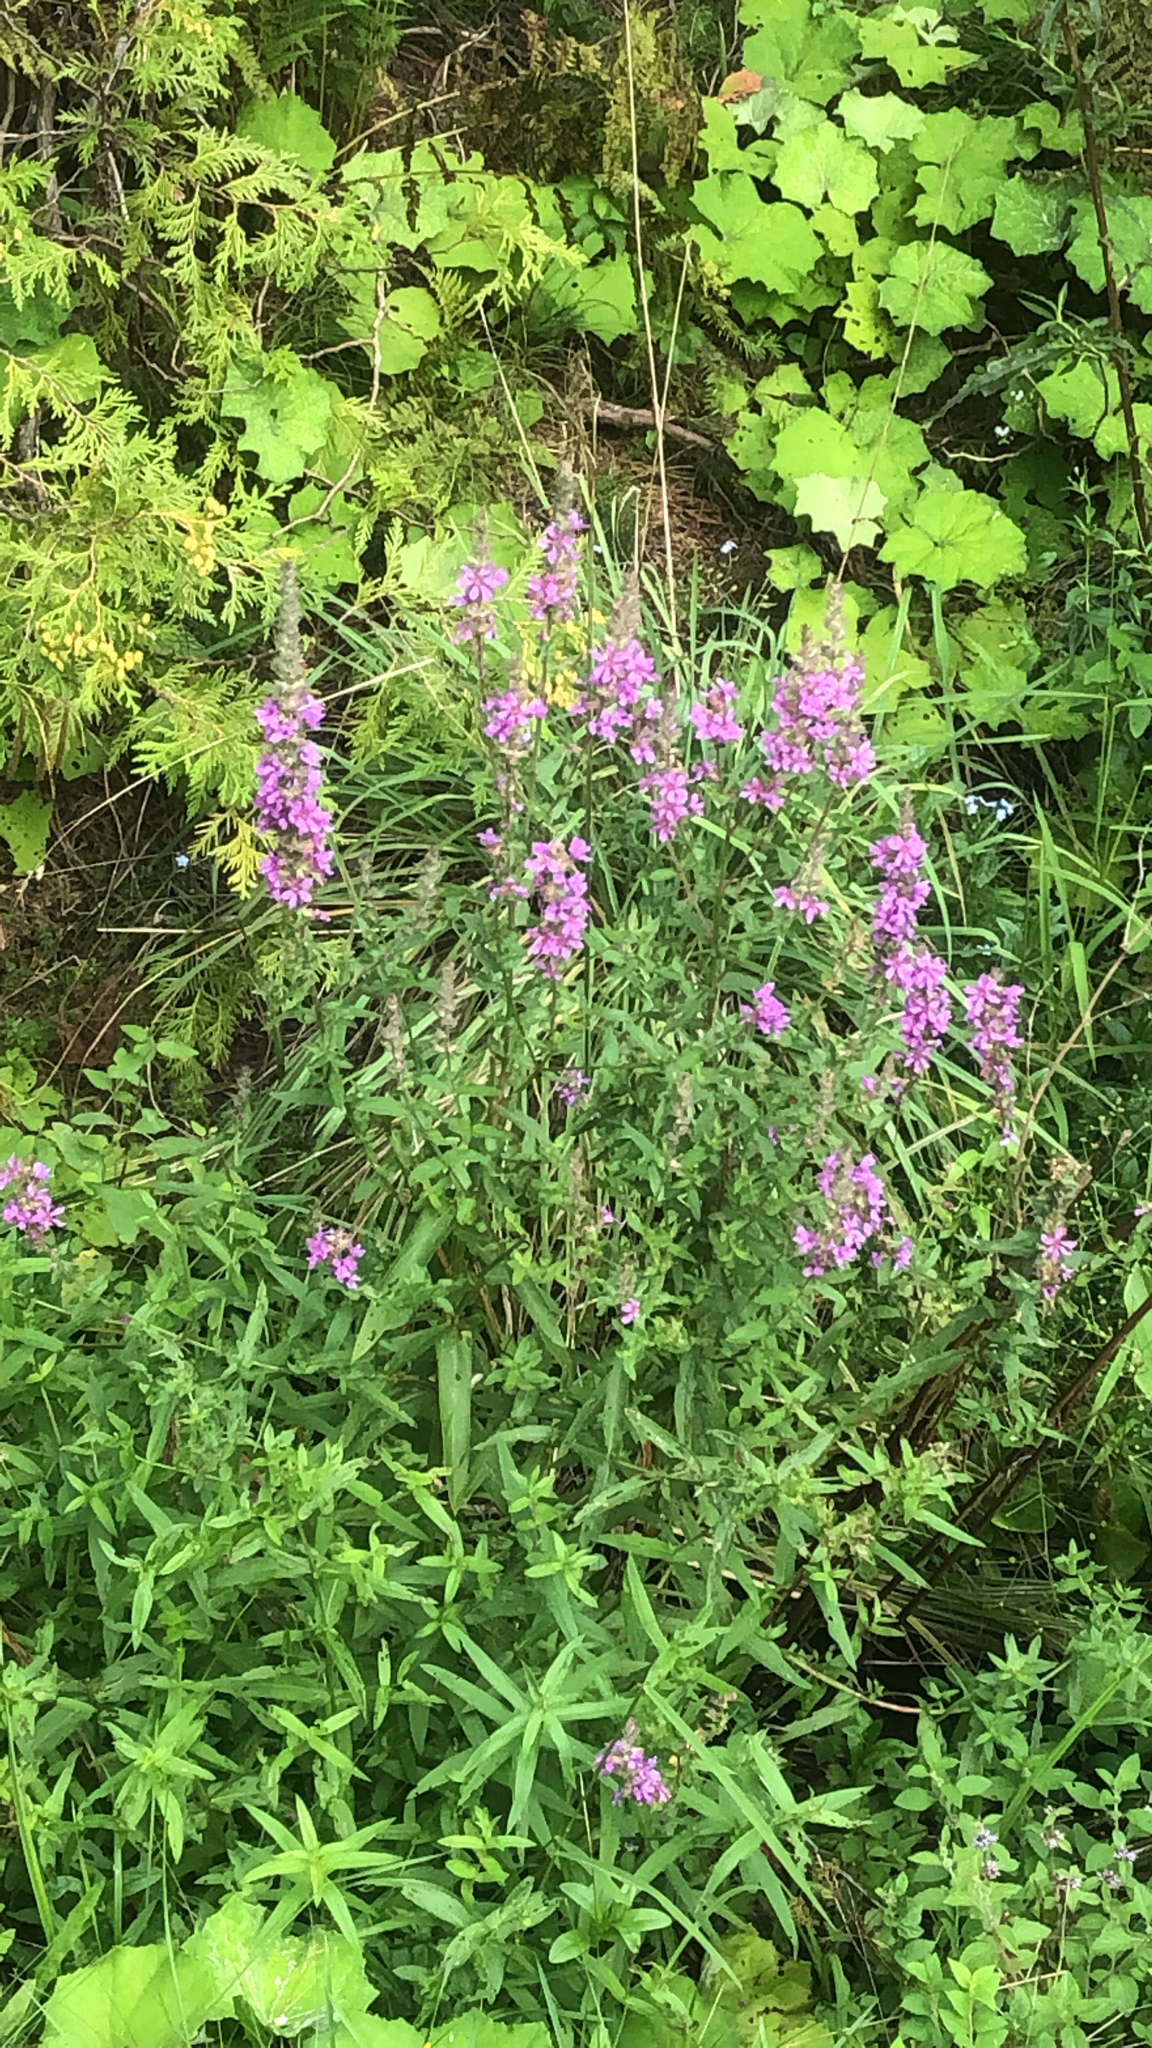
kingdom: Plantae
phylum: Tracheophyta
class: Magnoliopsida
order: Myrtales
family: Lythraceae
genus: Lythrum
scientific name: Lythrum salicaria
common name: Purple loosestrife
